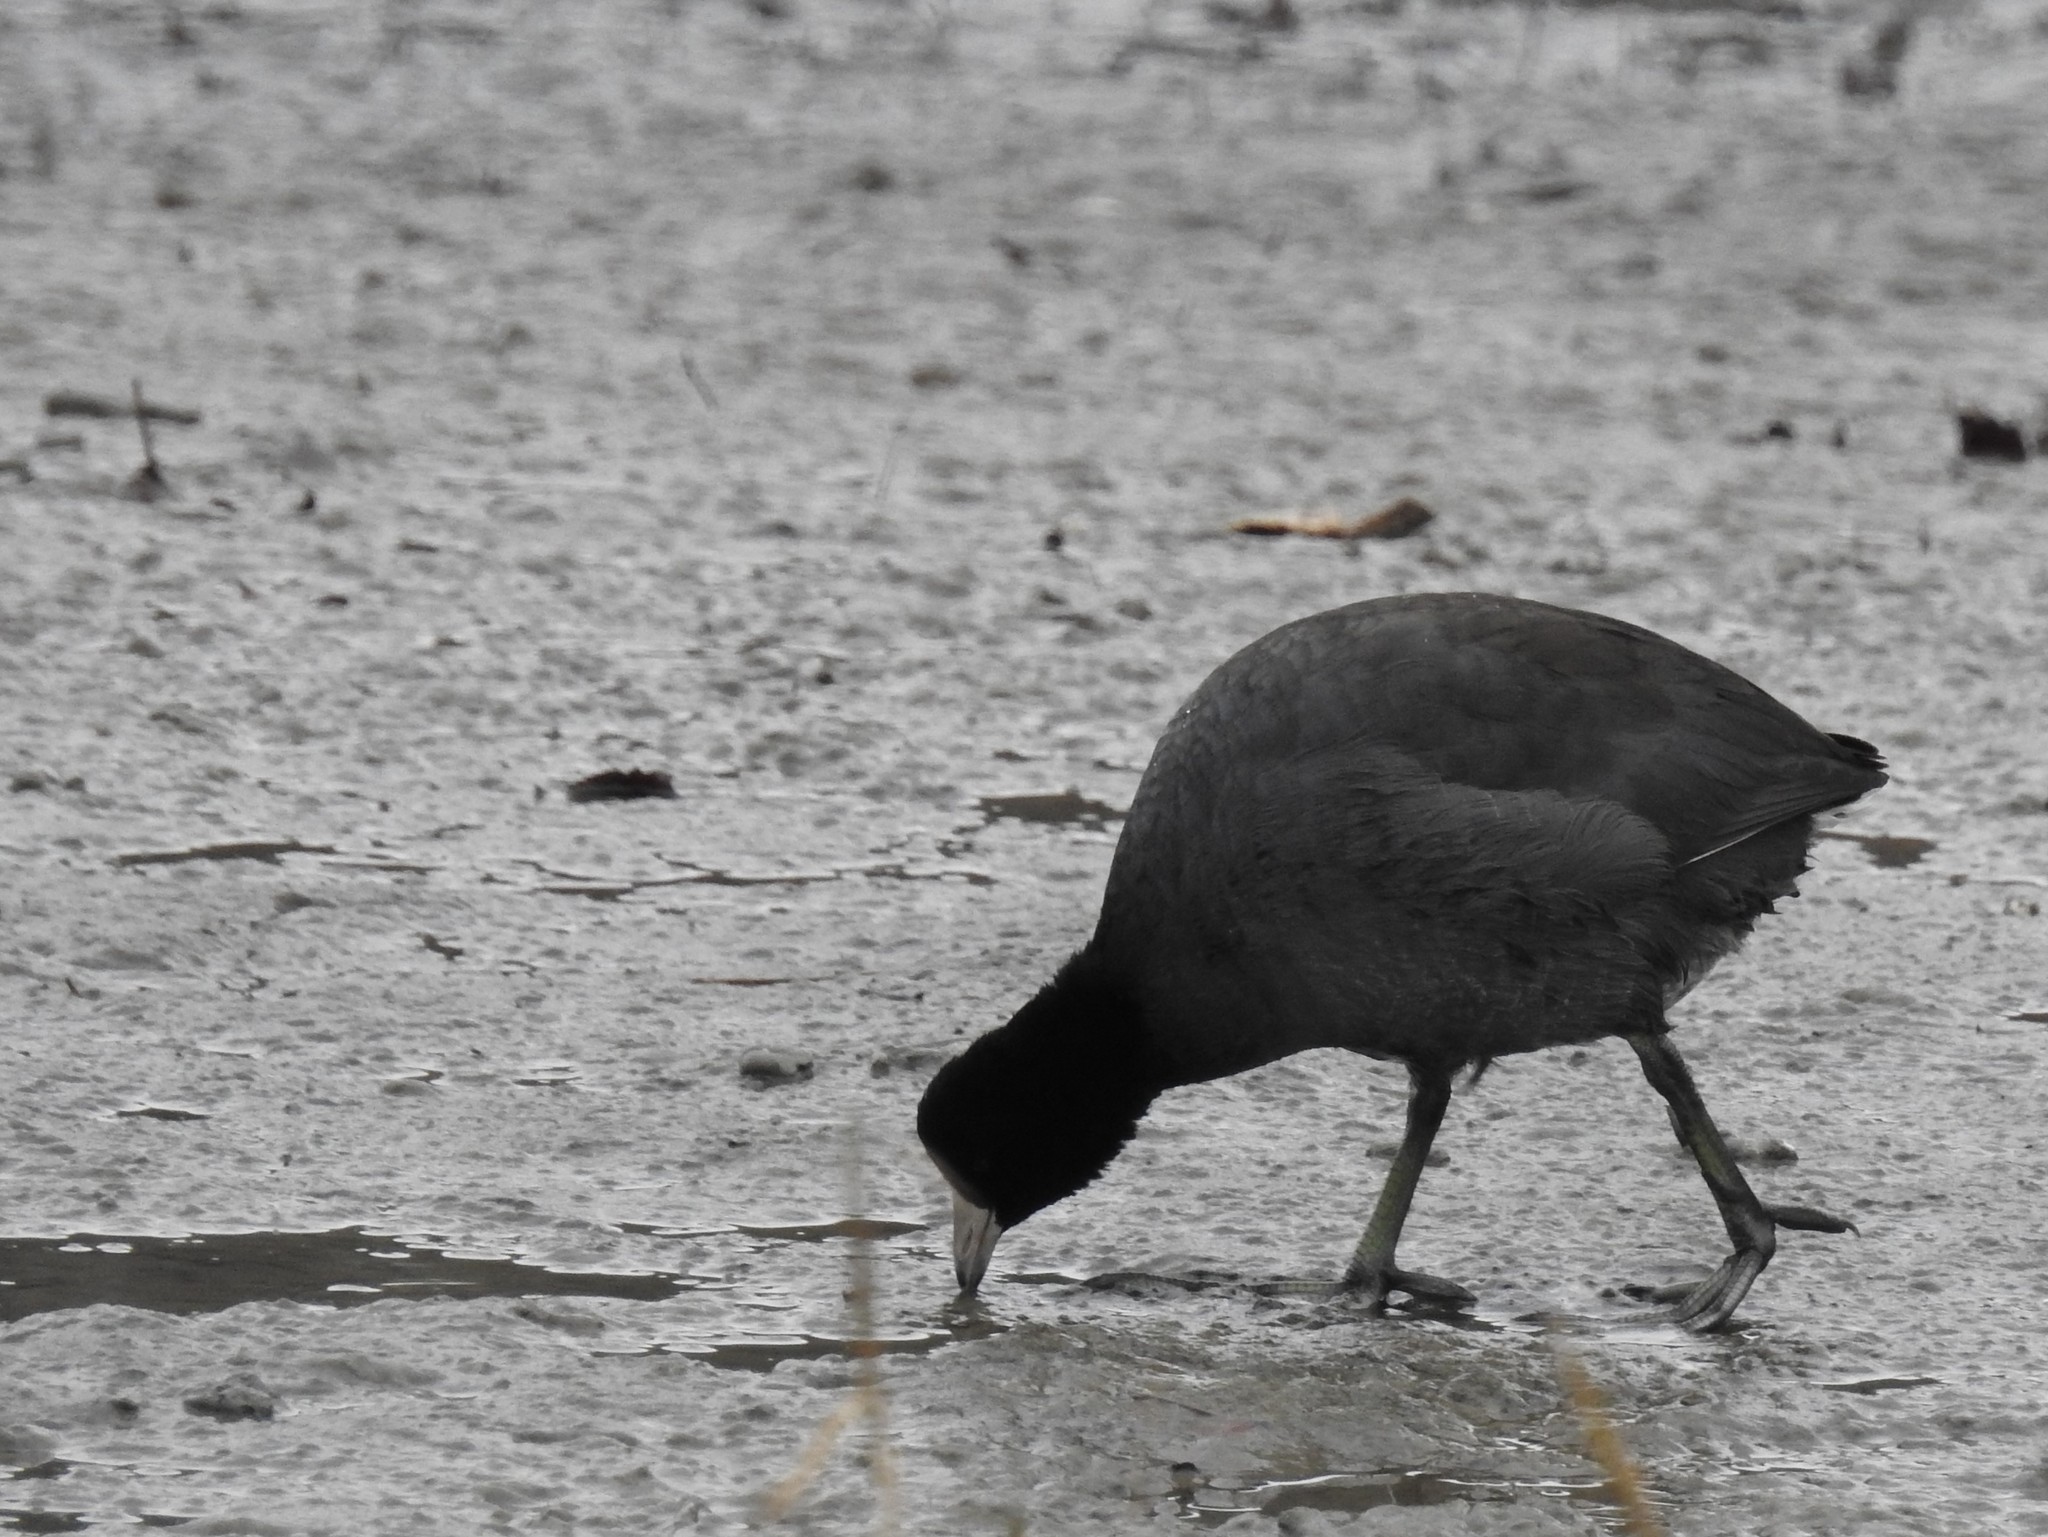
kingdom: Animalia
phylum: Chordata
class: Aves
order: Gruiformes
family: Rallidae
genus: Fulica
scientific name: Fulica americana
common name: American coot
